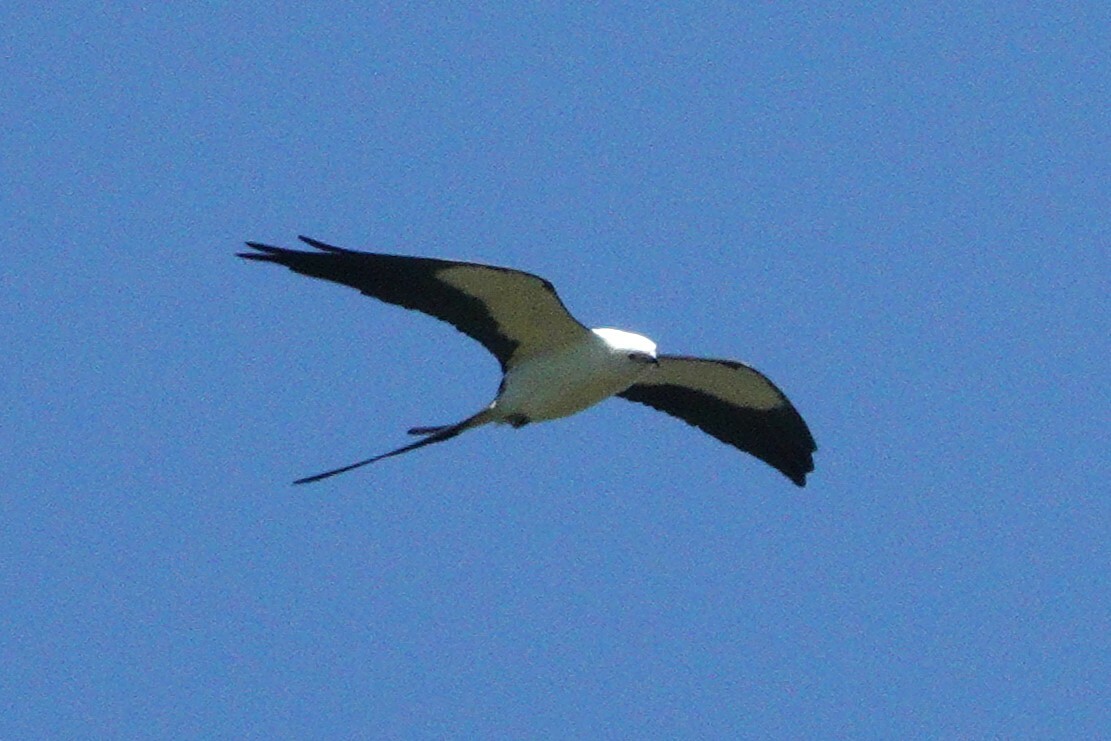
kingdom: Animalia
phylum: Chordata
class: Aves
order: Accipitriformes
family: Accipitridae
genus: Elanoides
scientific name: Elanoides forficatus
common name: Swallow-tailed kite
